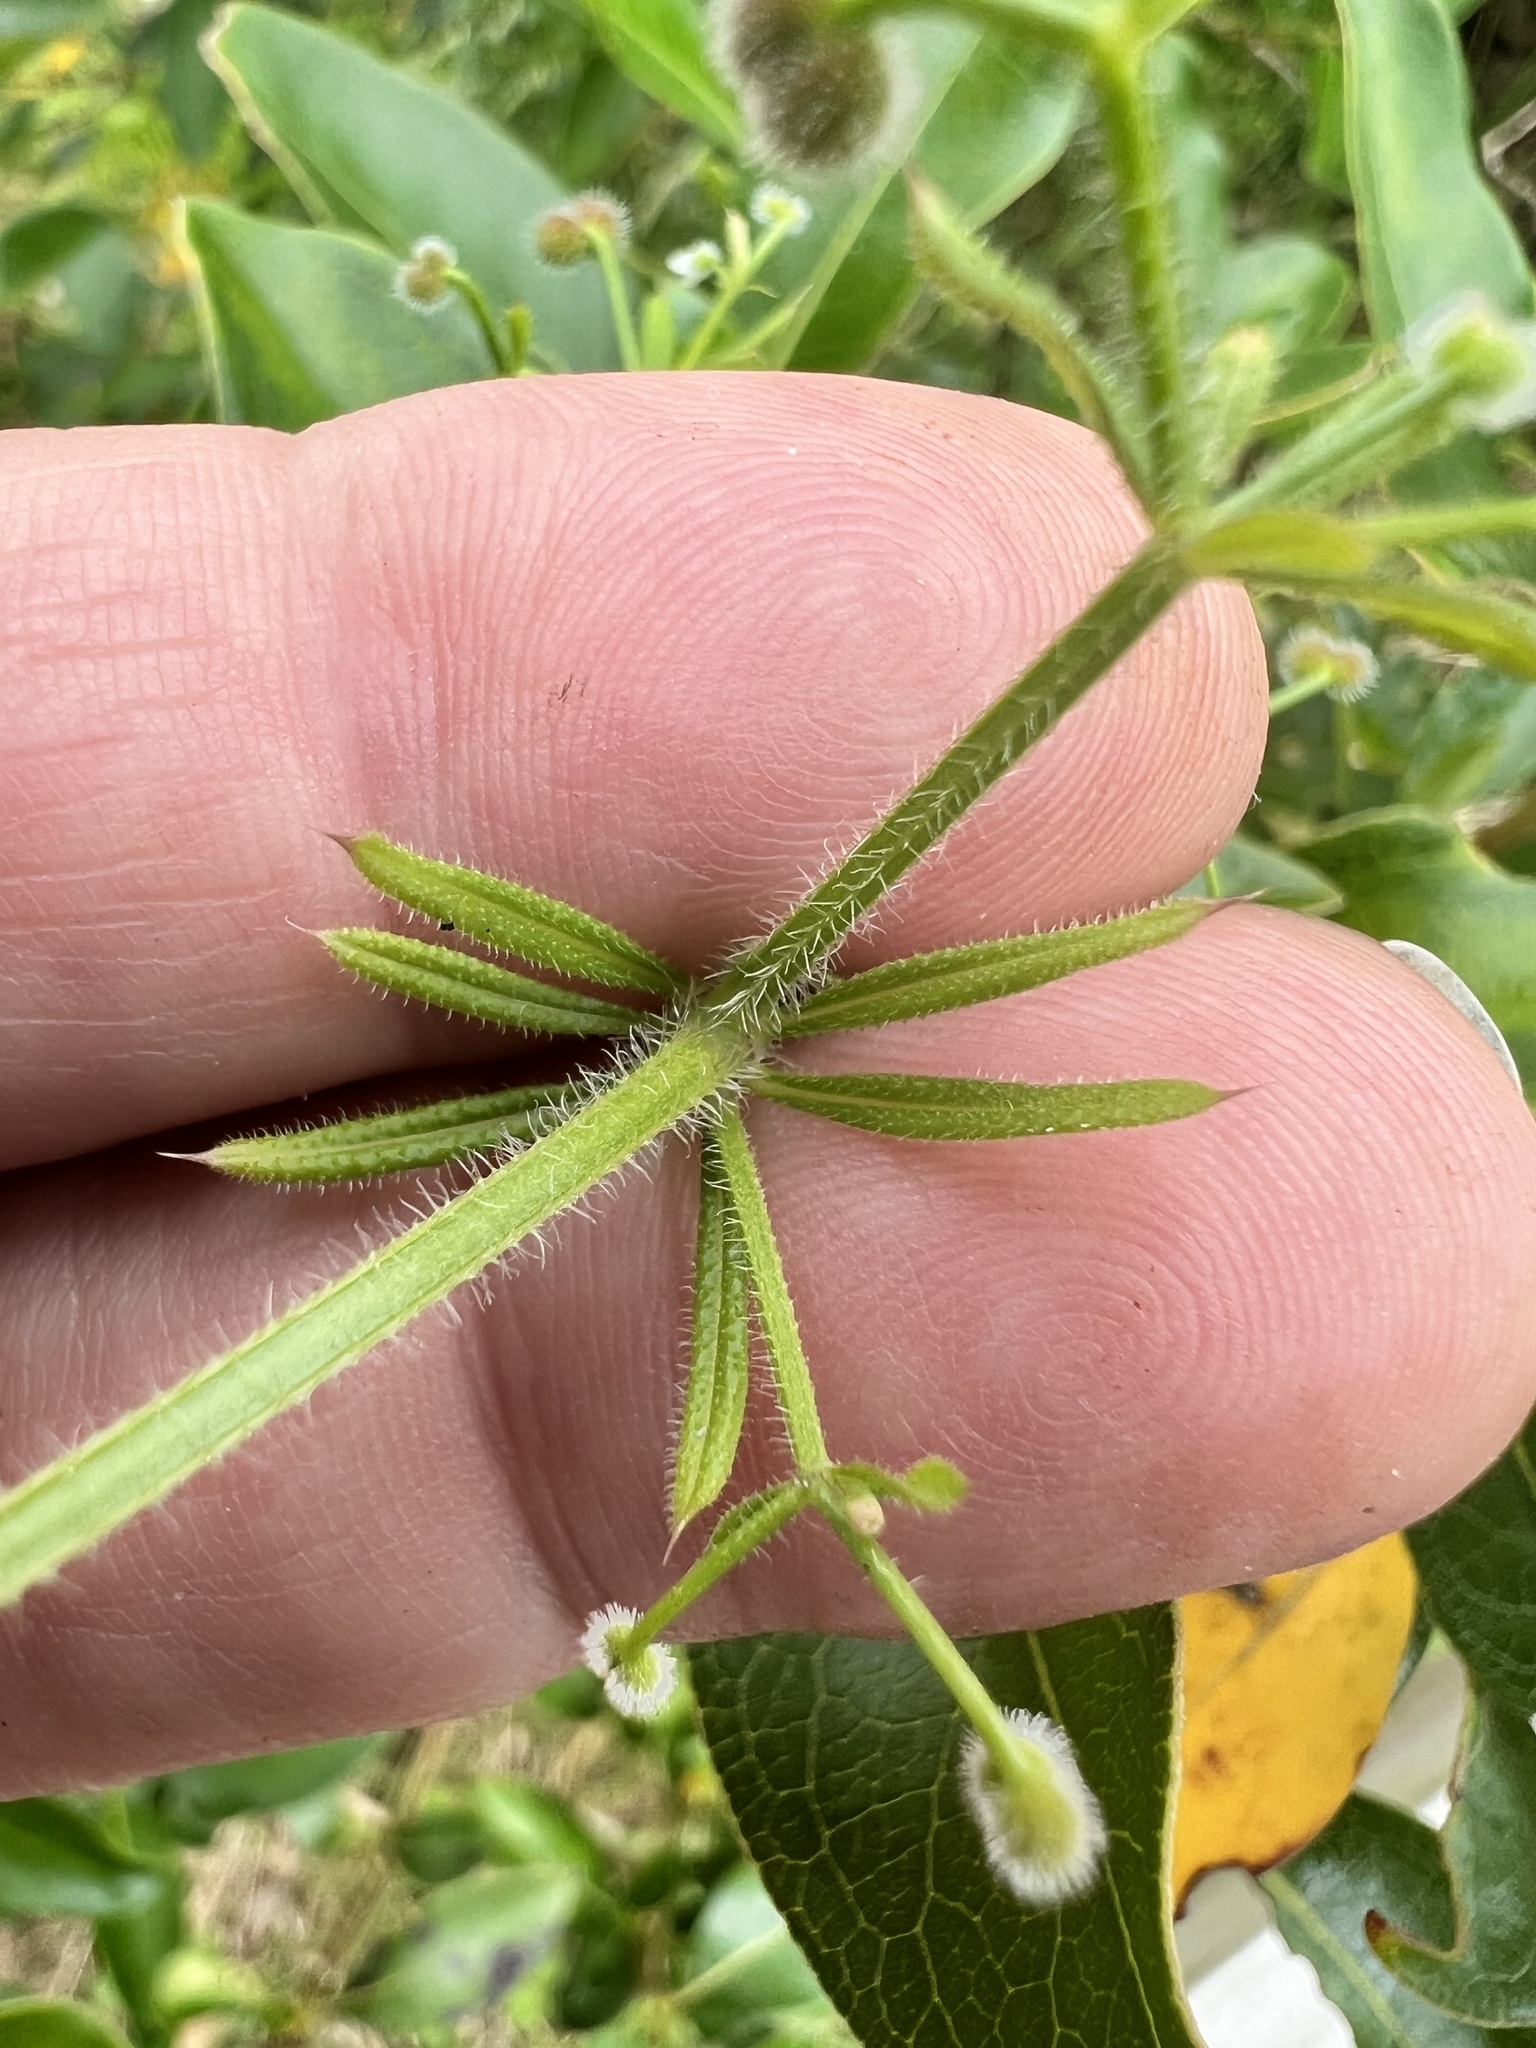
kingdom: Plantae
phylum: Tracheophyta
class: Magnoliopsida
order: Gentianales
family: Rubiaceae
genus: Galium
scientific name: Galium aparine
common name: Cleavers
